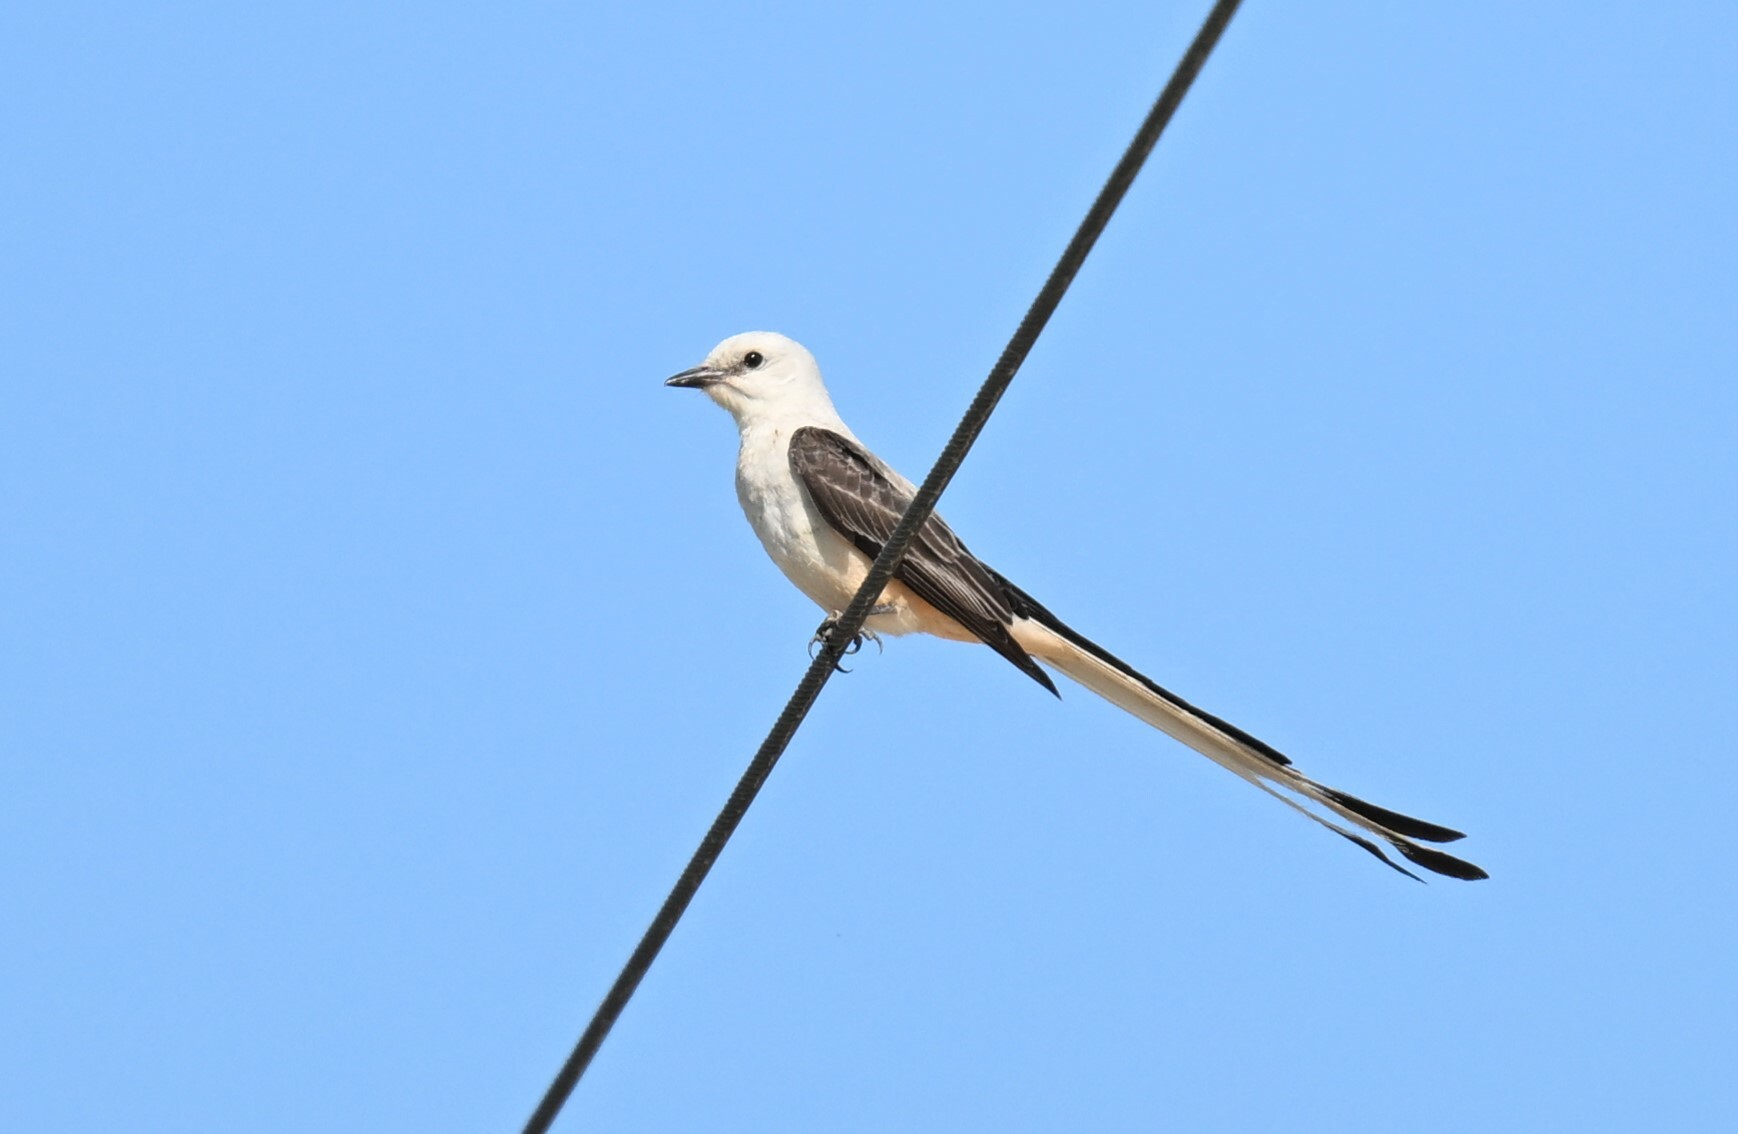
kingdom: Animalia
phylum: Chordata
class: Aves
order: Passeriformes
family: Tyrannidae
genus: Tyrannus
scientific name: Tyrannus forficatus
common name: Scissor-tailed flycatcher
